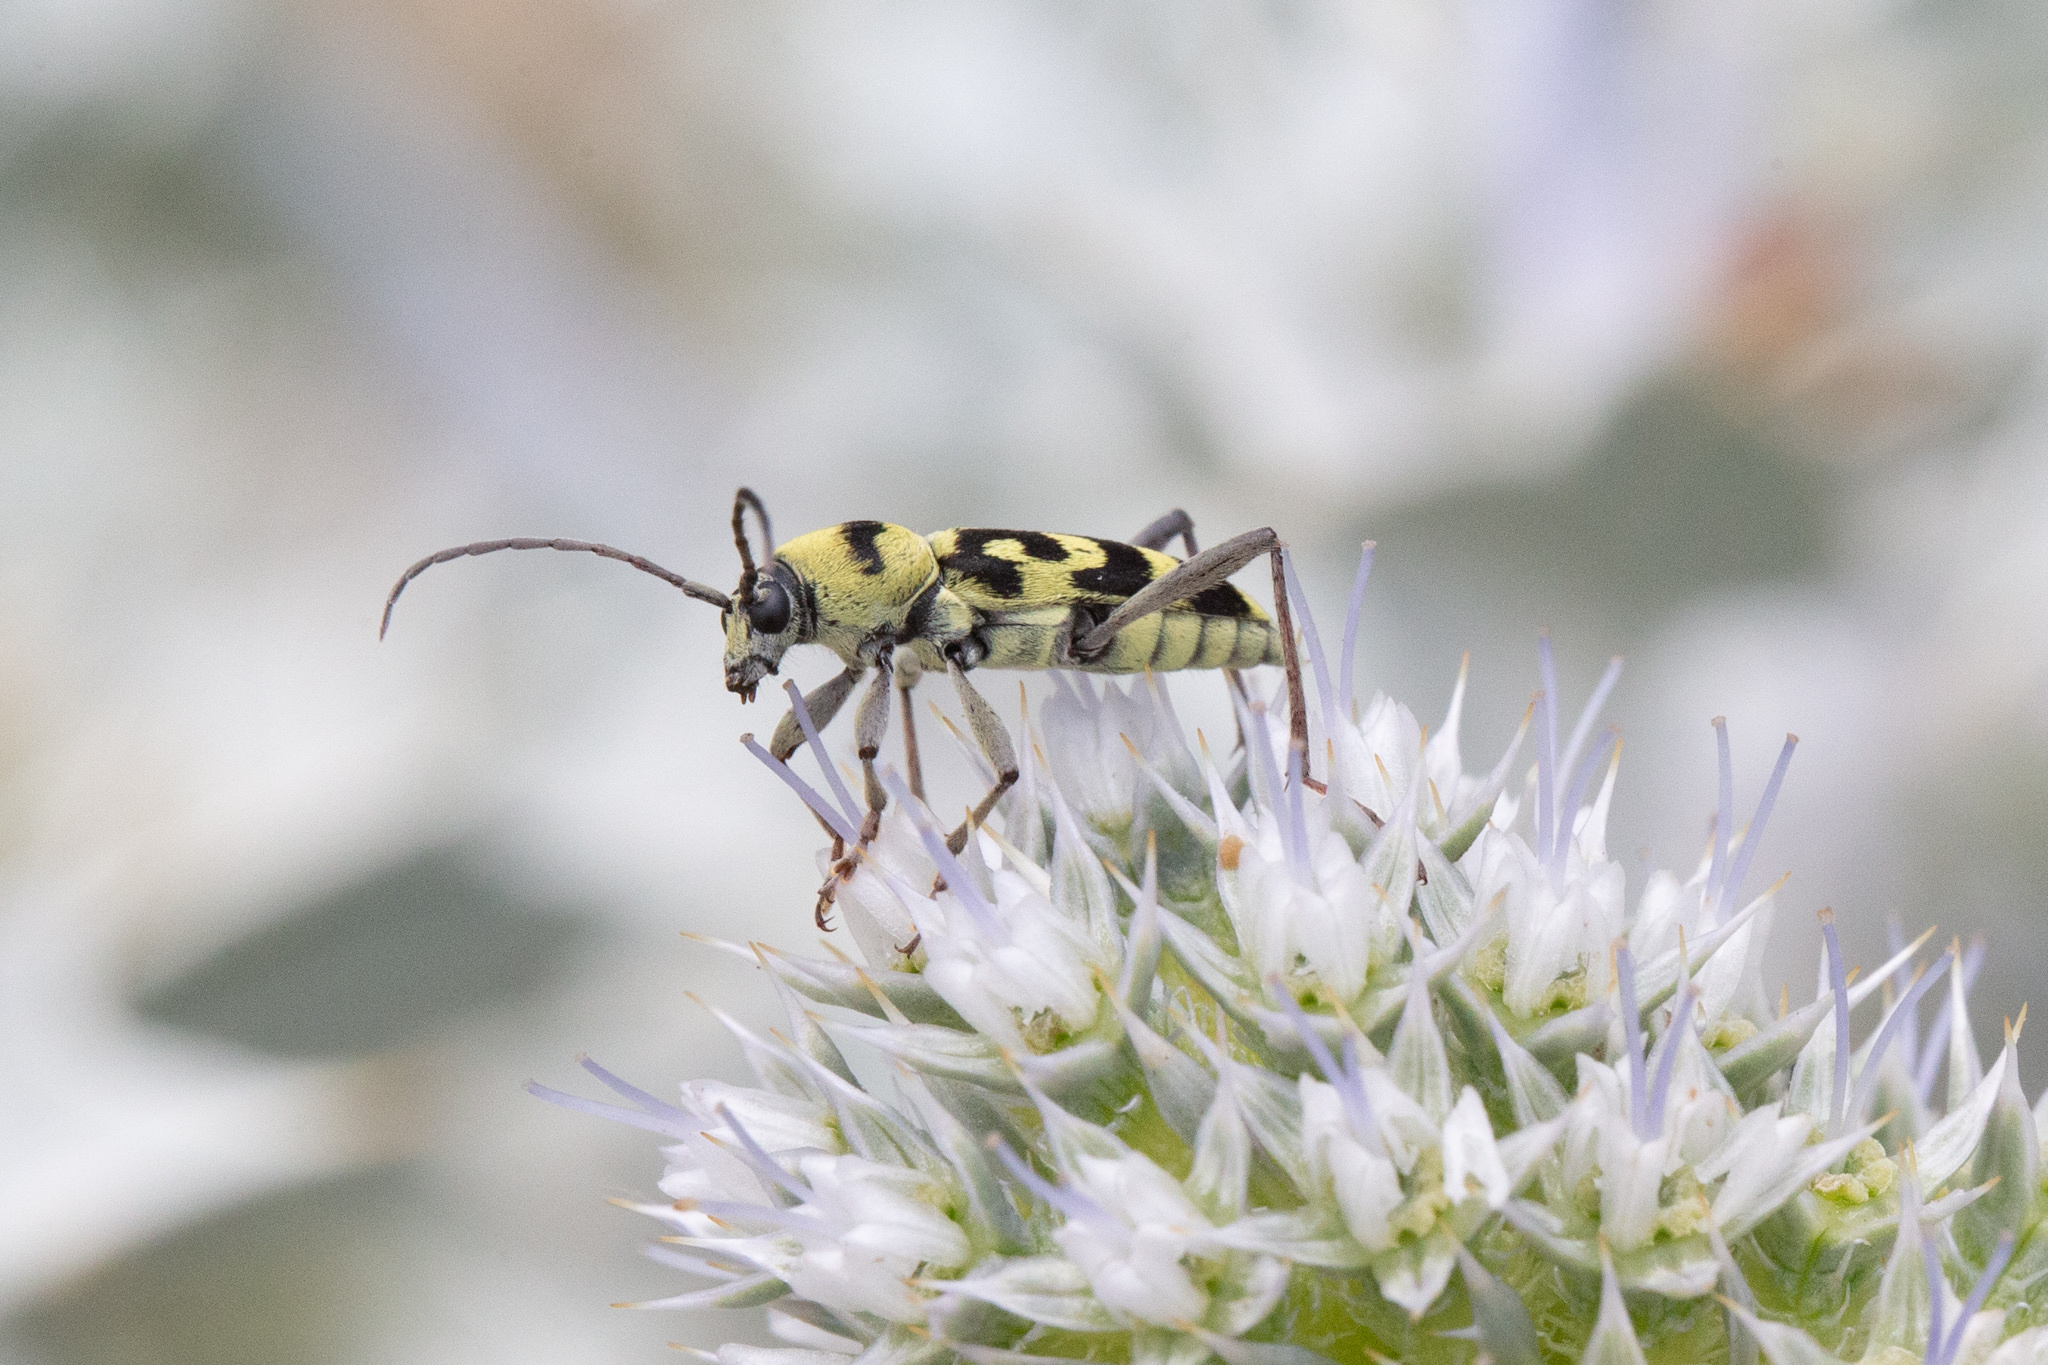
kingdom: Animalia
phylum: Arthropoda
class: Insecta
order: Coleoptera
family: Cerambycidae
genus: Chlorophorus
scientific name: Chlorophorus varius
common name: Grape wood borer
